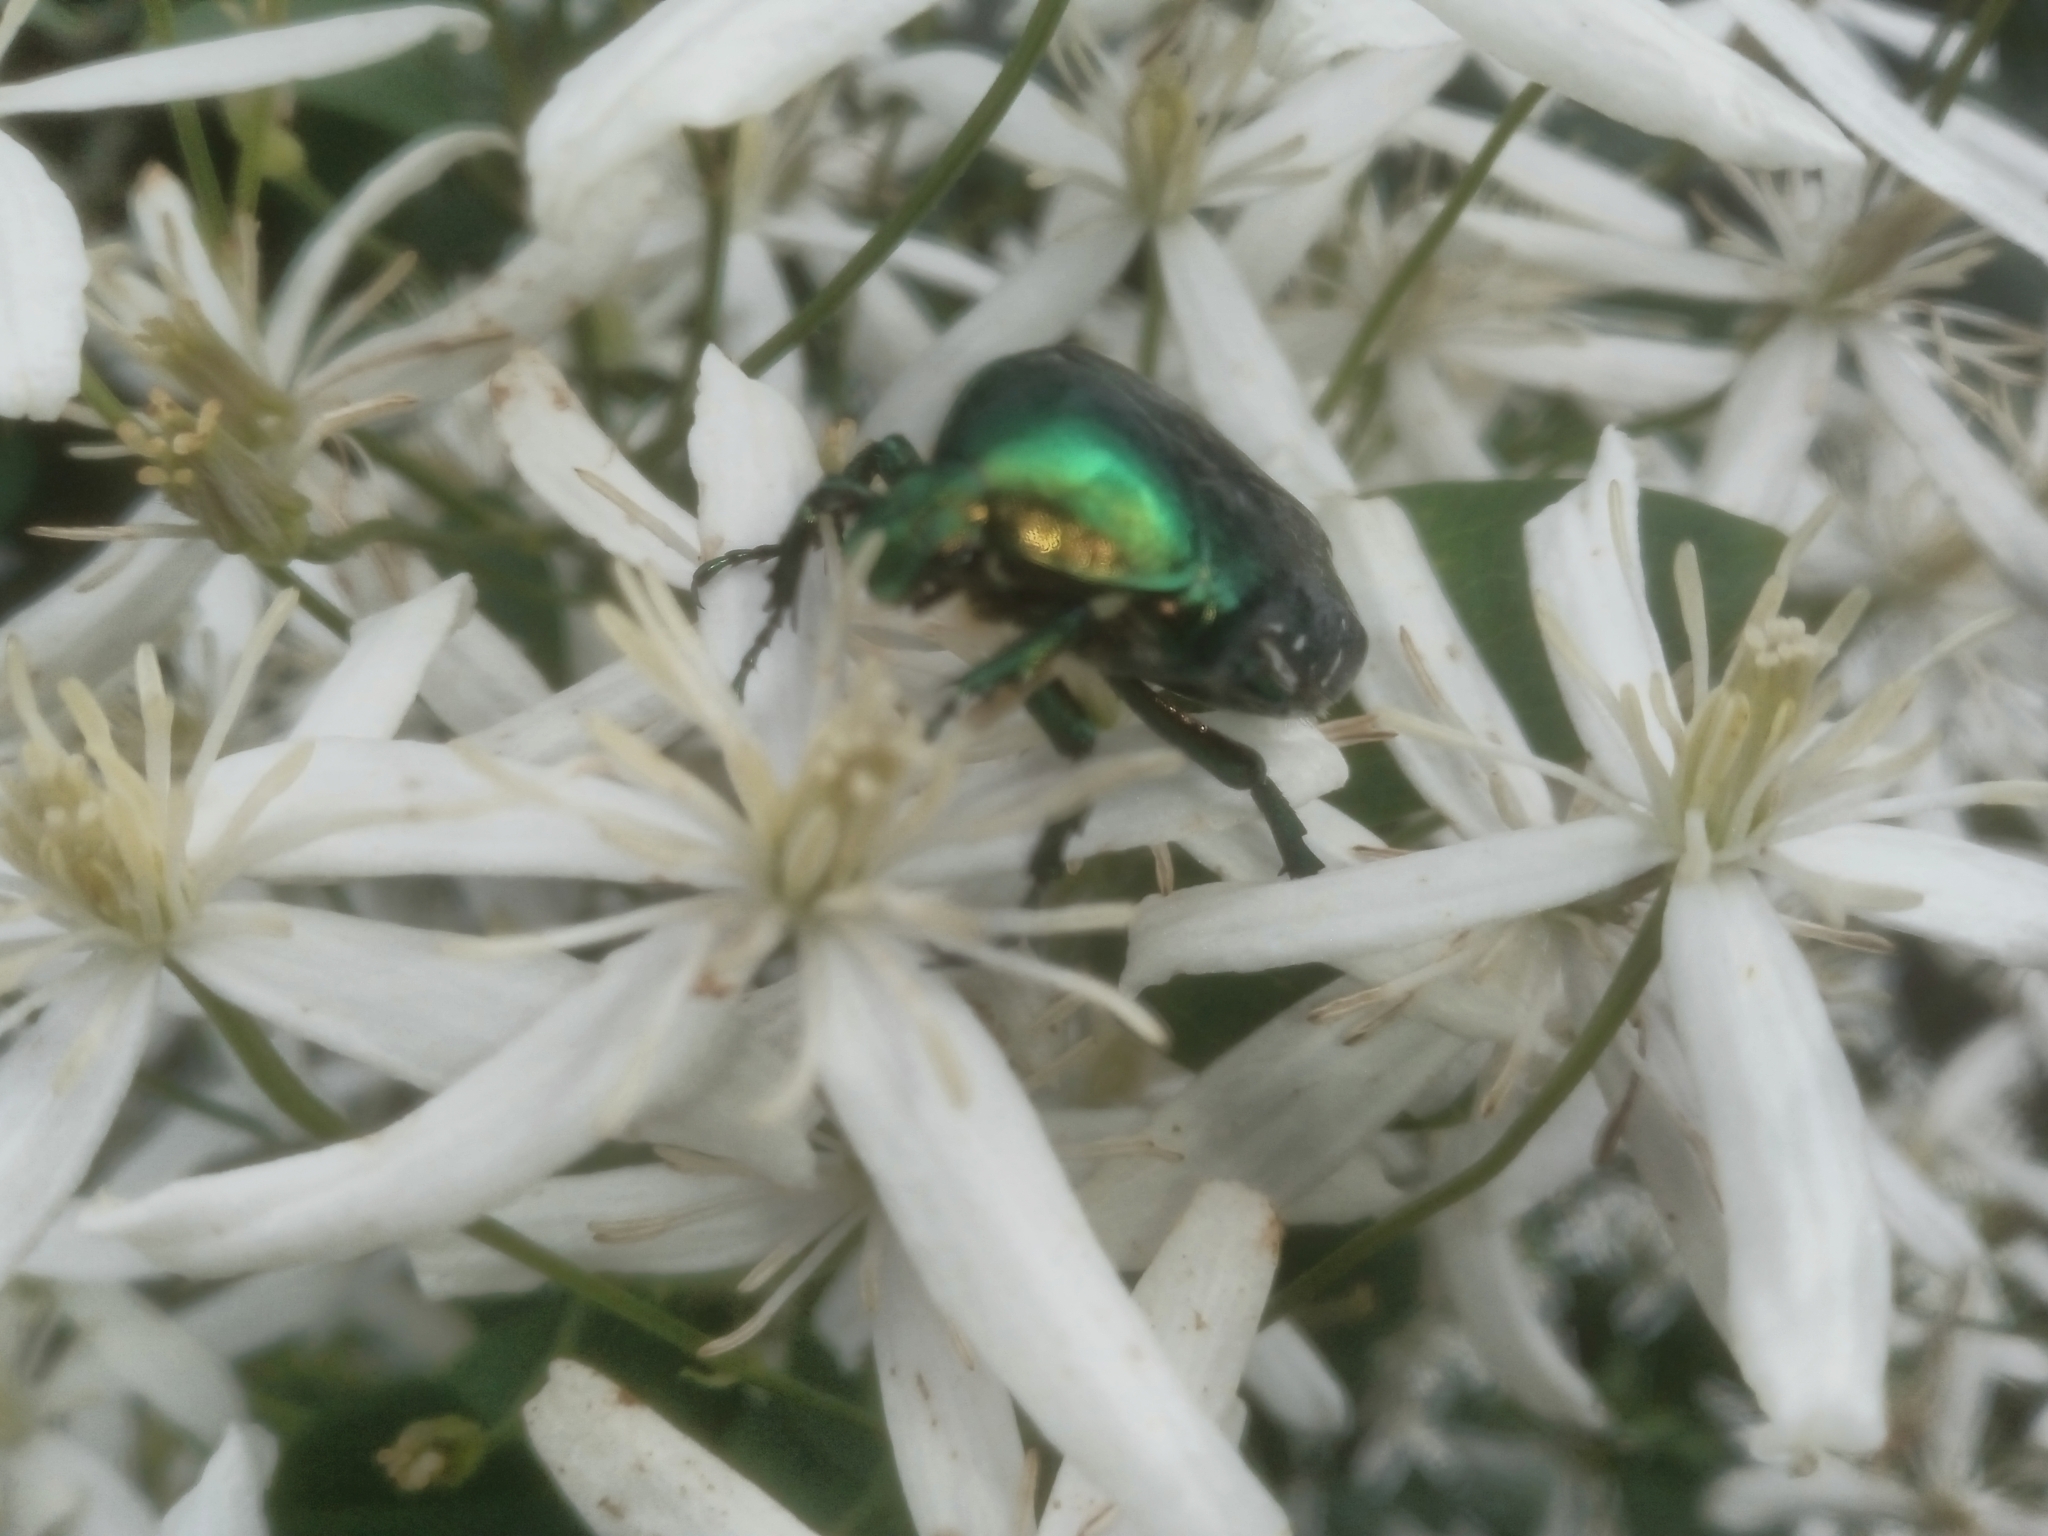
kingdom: Animalia
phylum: Arthropoda
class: Insecta
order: Coleoptera
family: Scarabaeidae
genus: Cetonia
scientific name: Cetonia aurata
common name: Rose chafer
